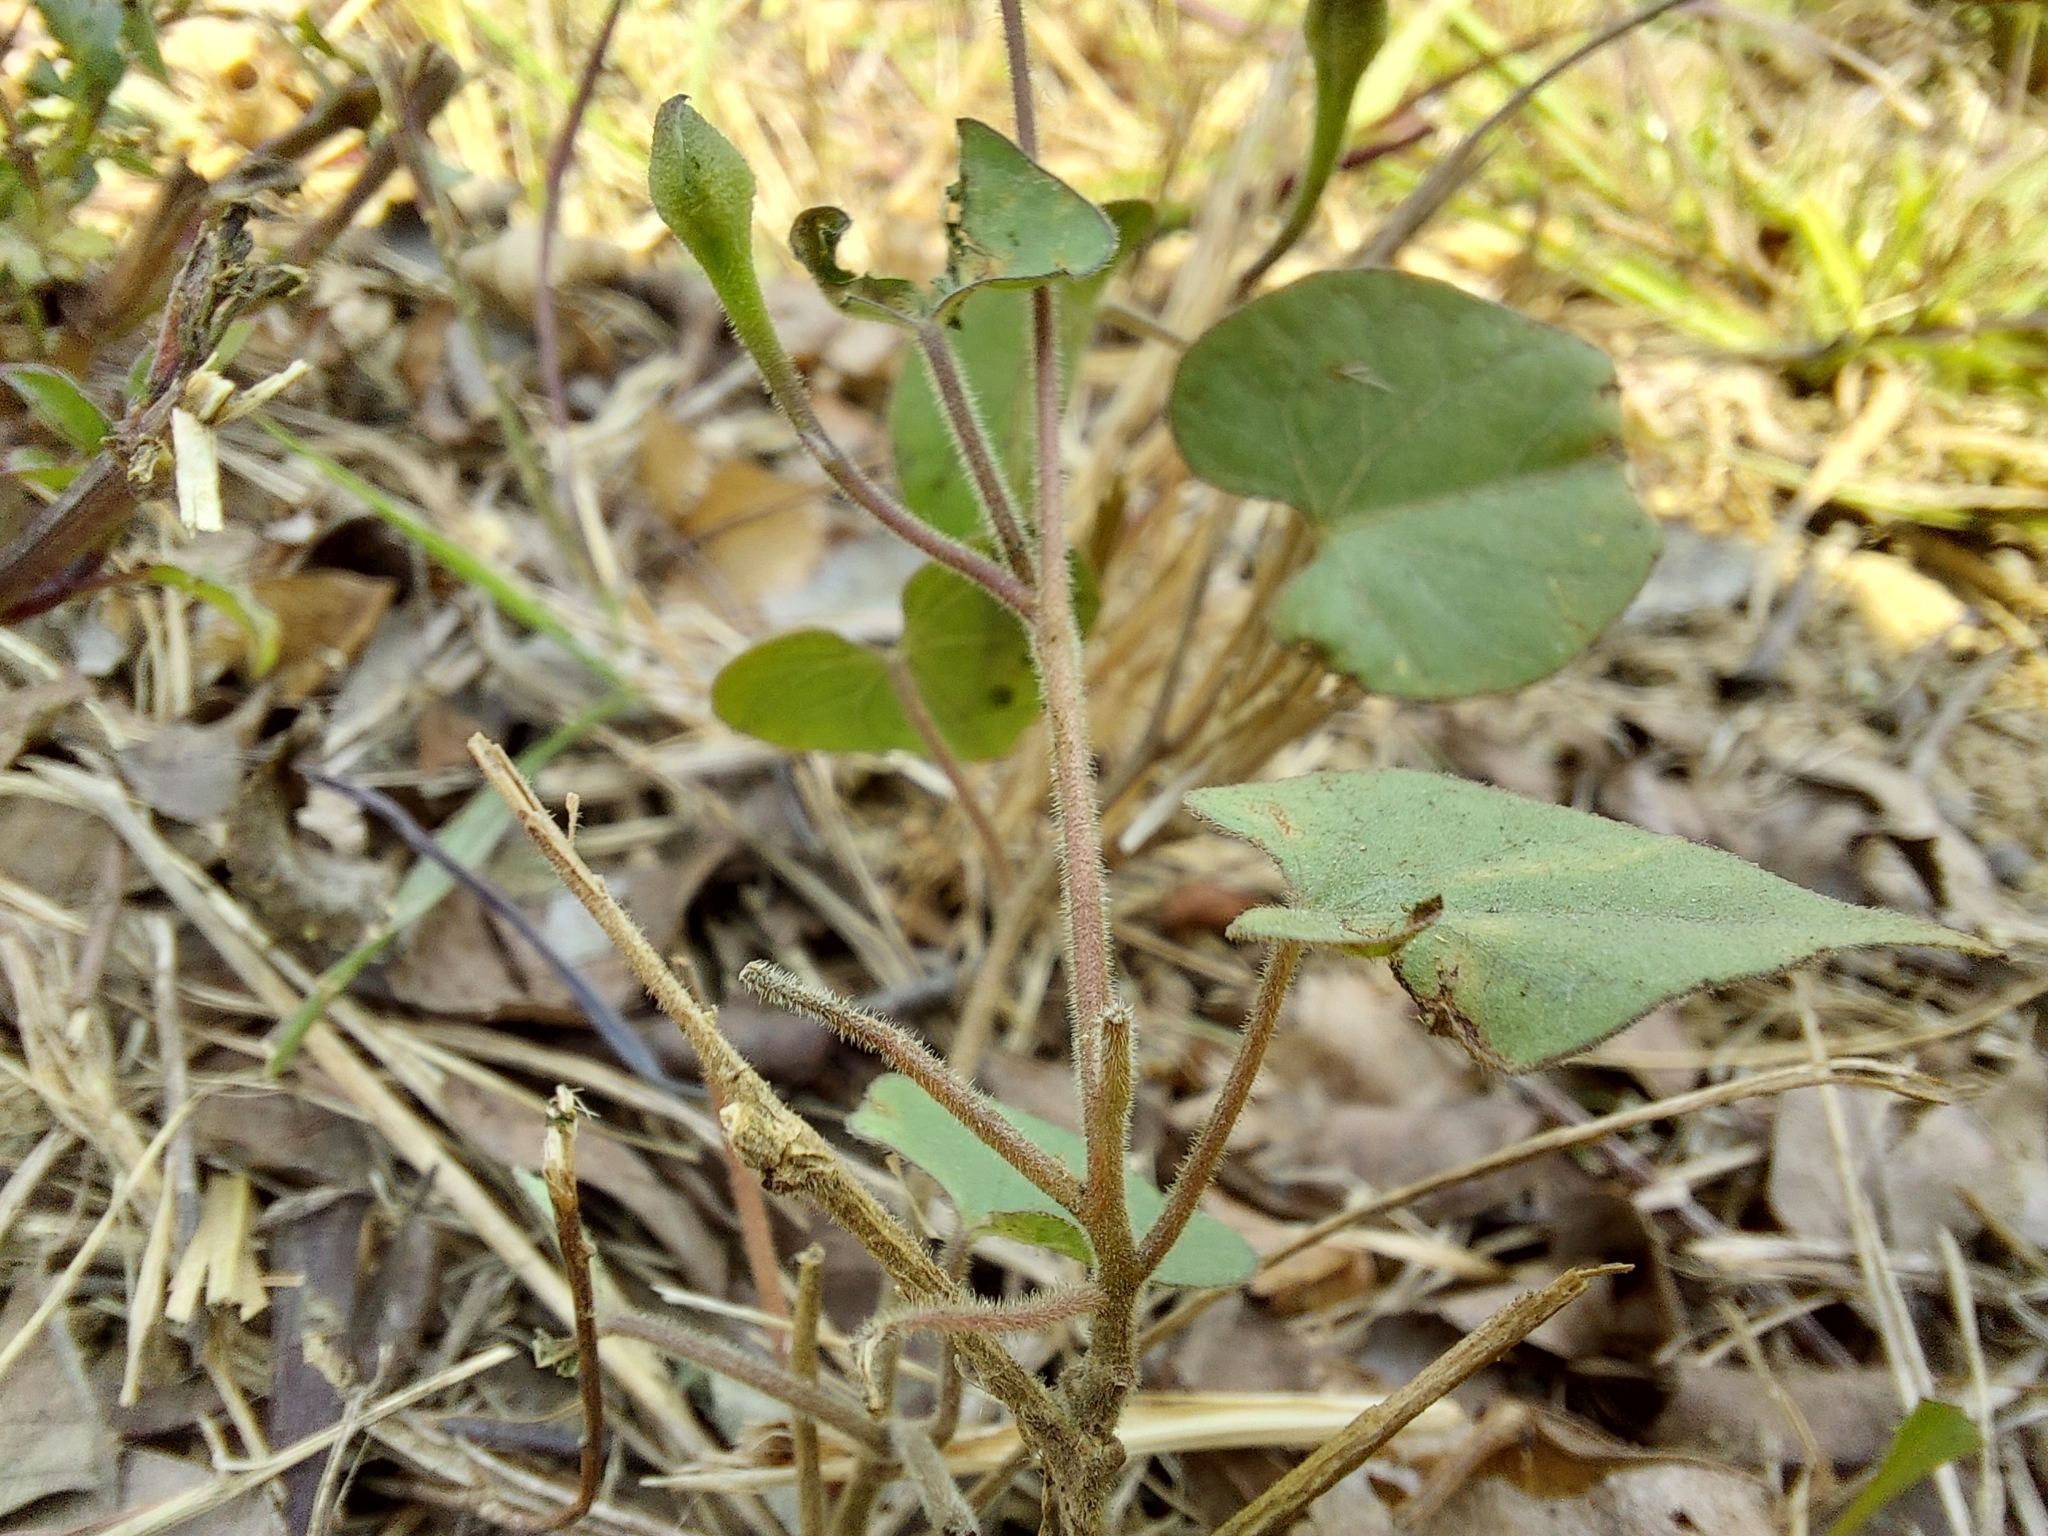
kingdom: Plantae
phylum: Tracheophyta
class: Magnoliopsida
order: Solanales
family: Convolvulaceae
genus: Ipomoea
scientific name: Ipomoea obscura
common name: Obscure morning-glory
